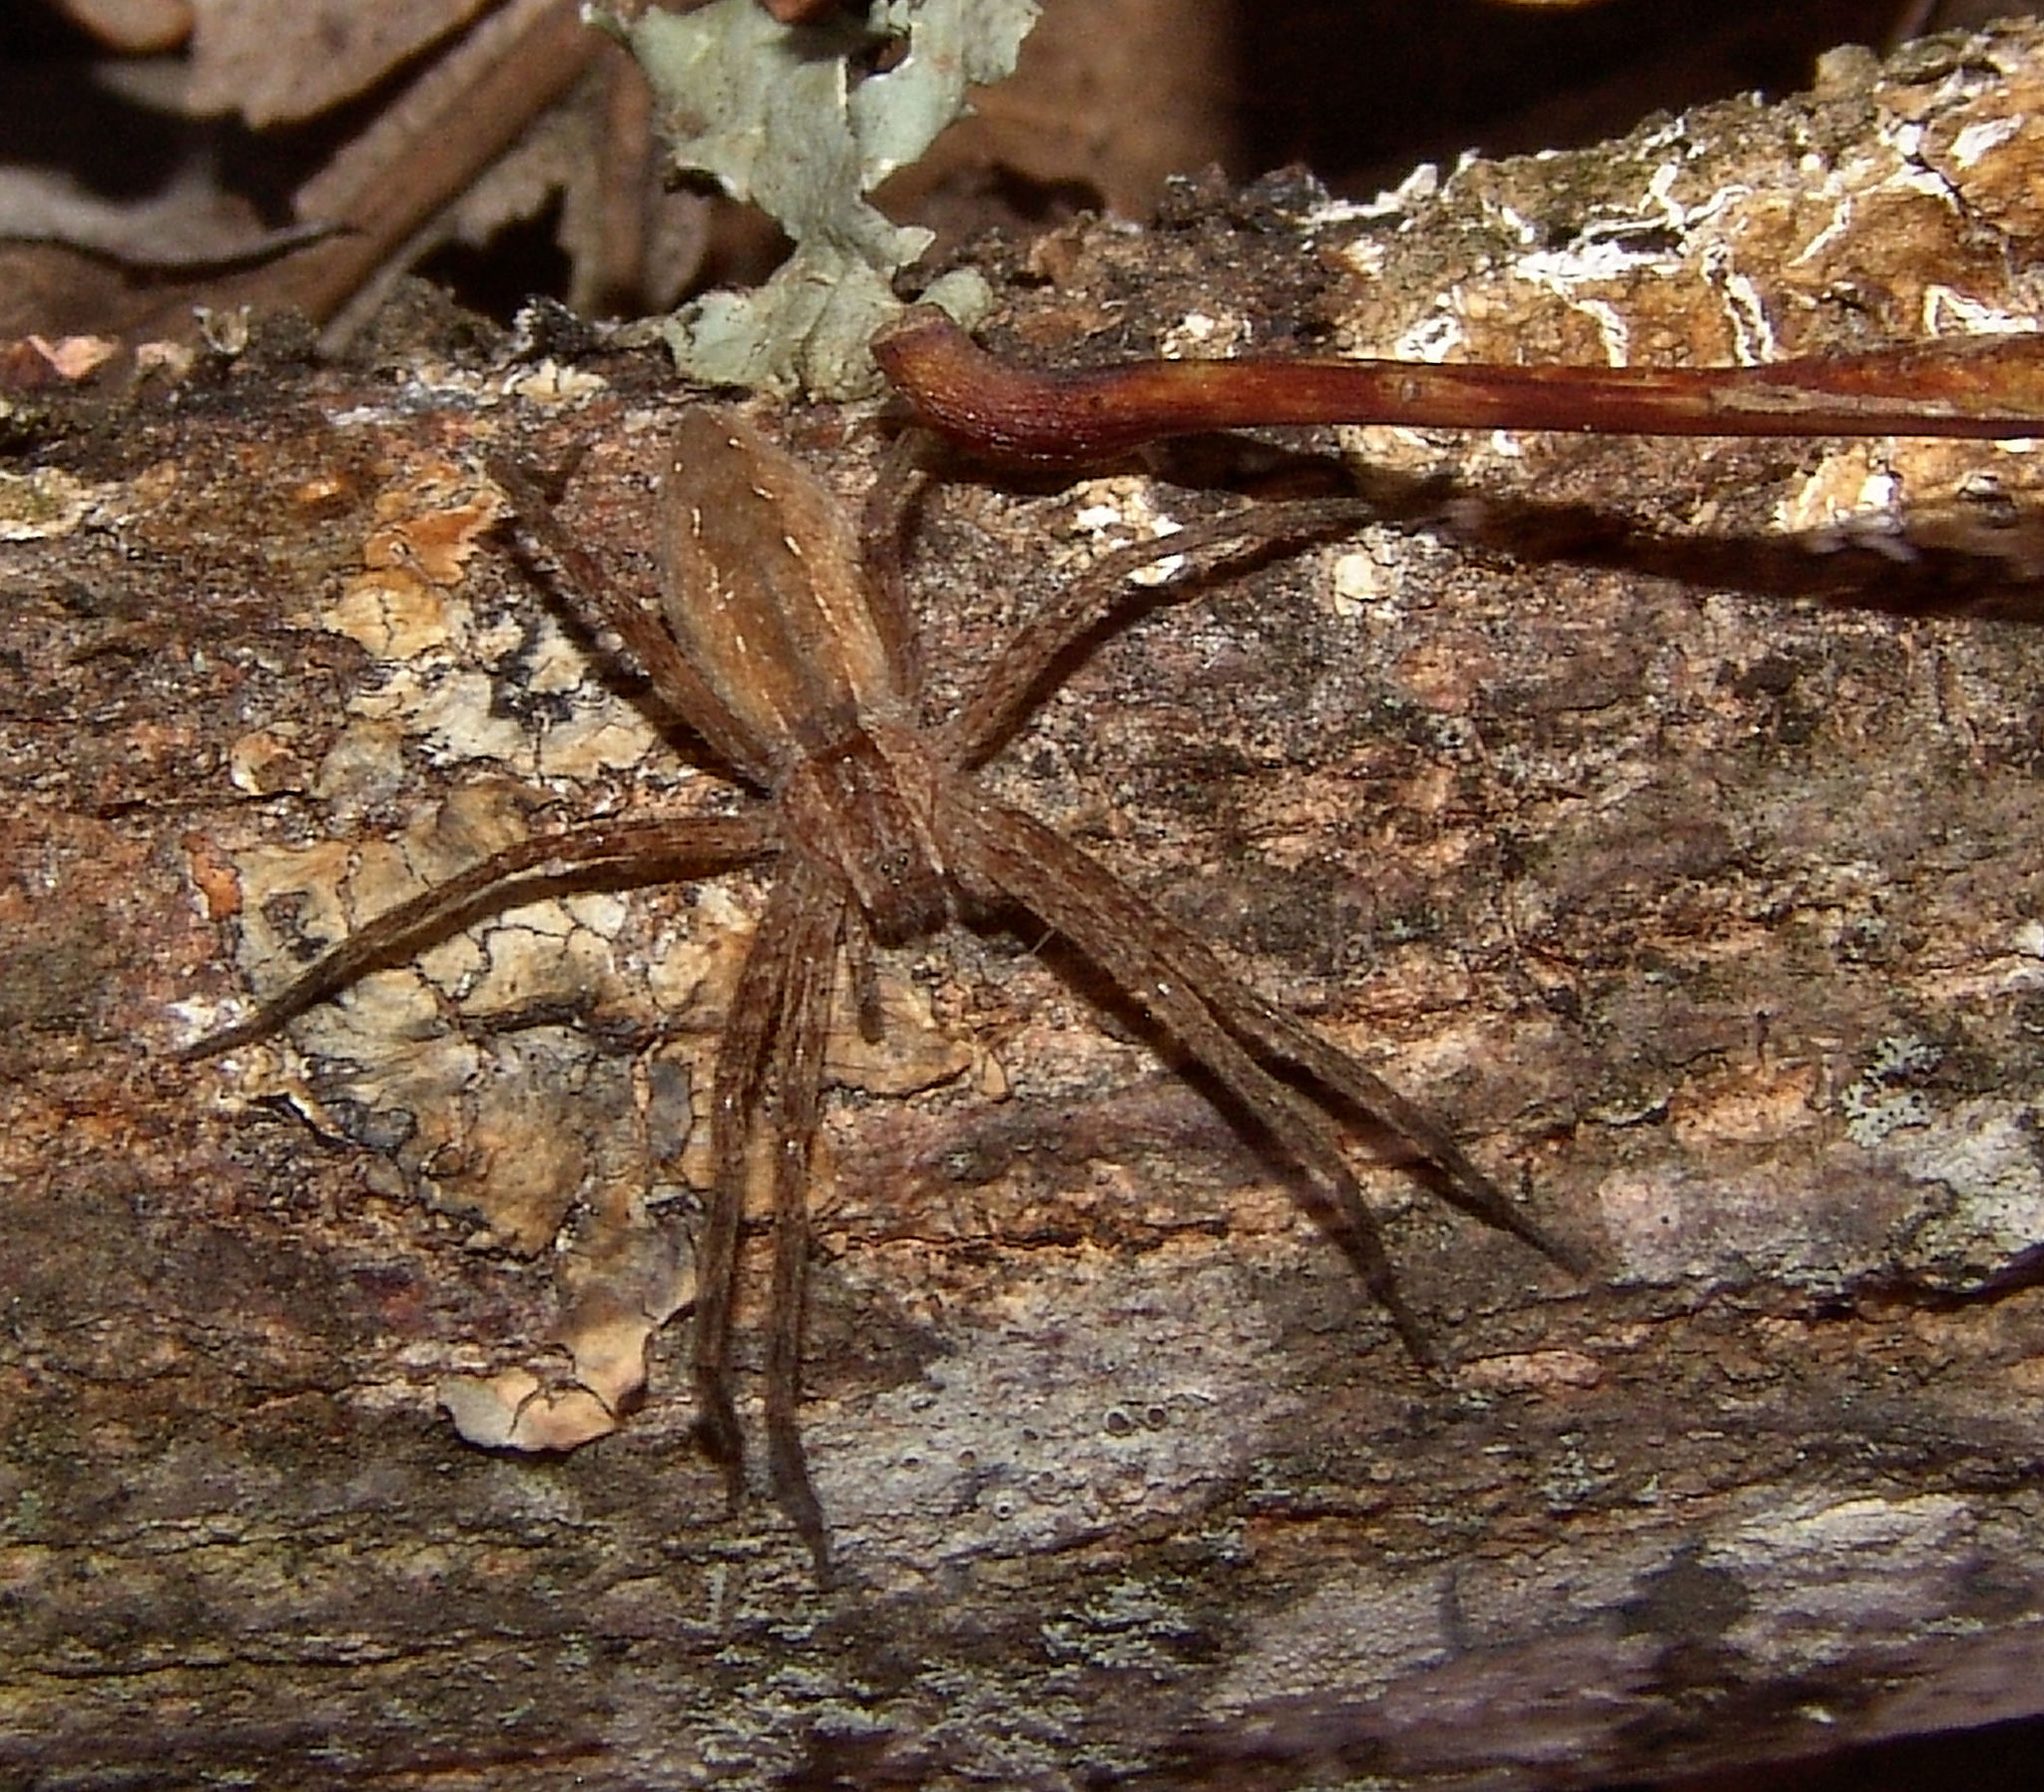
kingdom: Animalia
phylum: Arthropoda
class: Arachnida
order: Araneae
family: Pisauridae
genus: Pisaurina
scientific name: Pisaurina mira
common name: American nursery web spider
